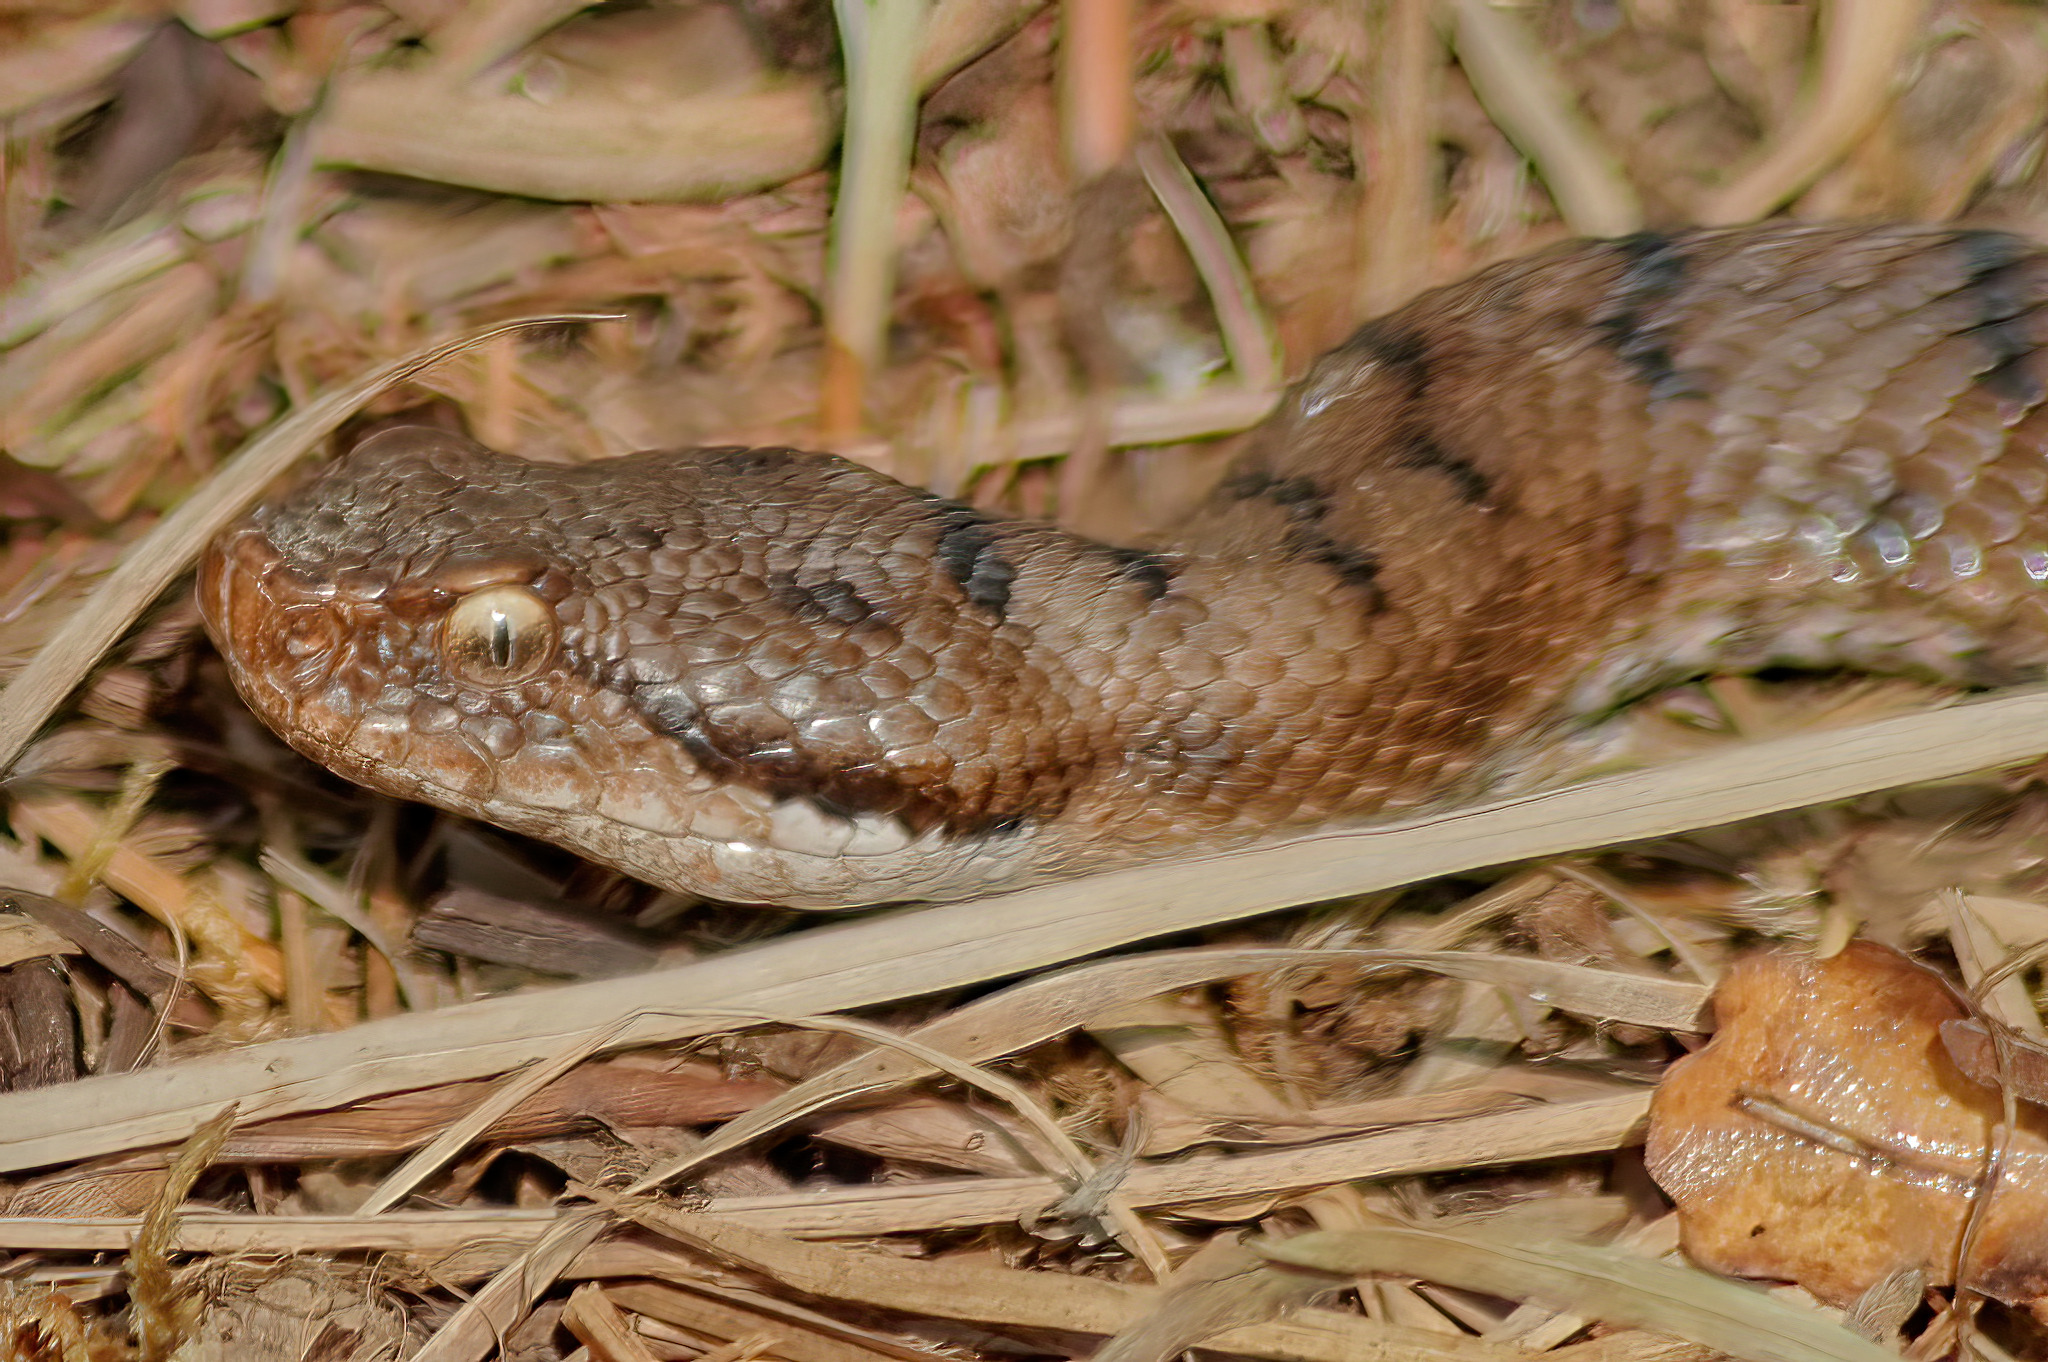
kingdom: Animalia
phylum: Chordata
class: Squamata
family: Viperidae
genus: Vipera
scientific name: Vipera aspis
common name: Asp viper
